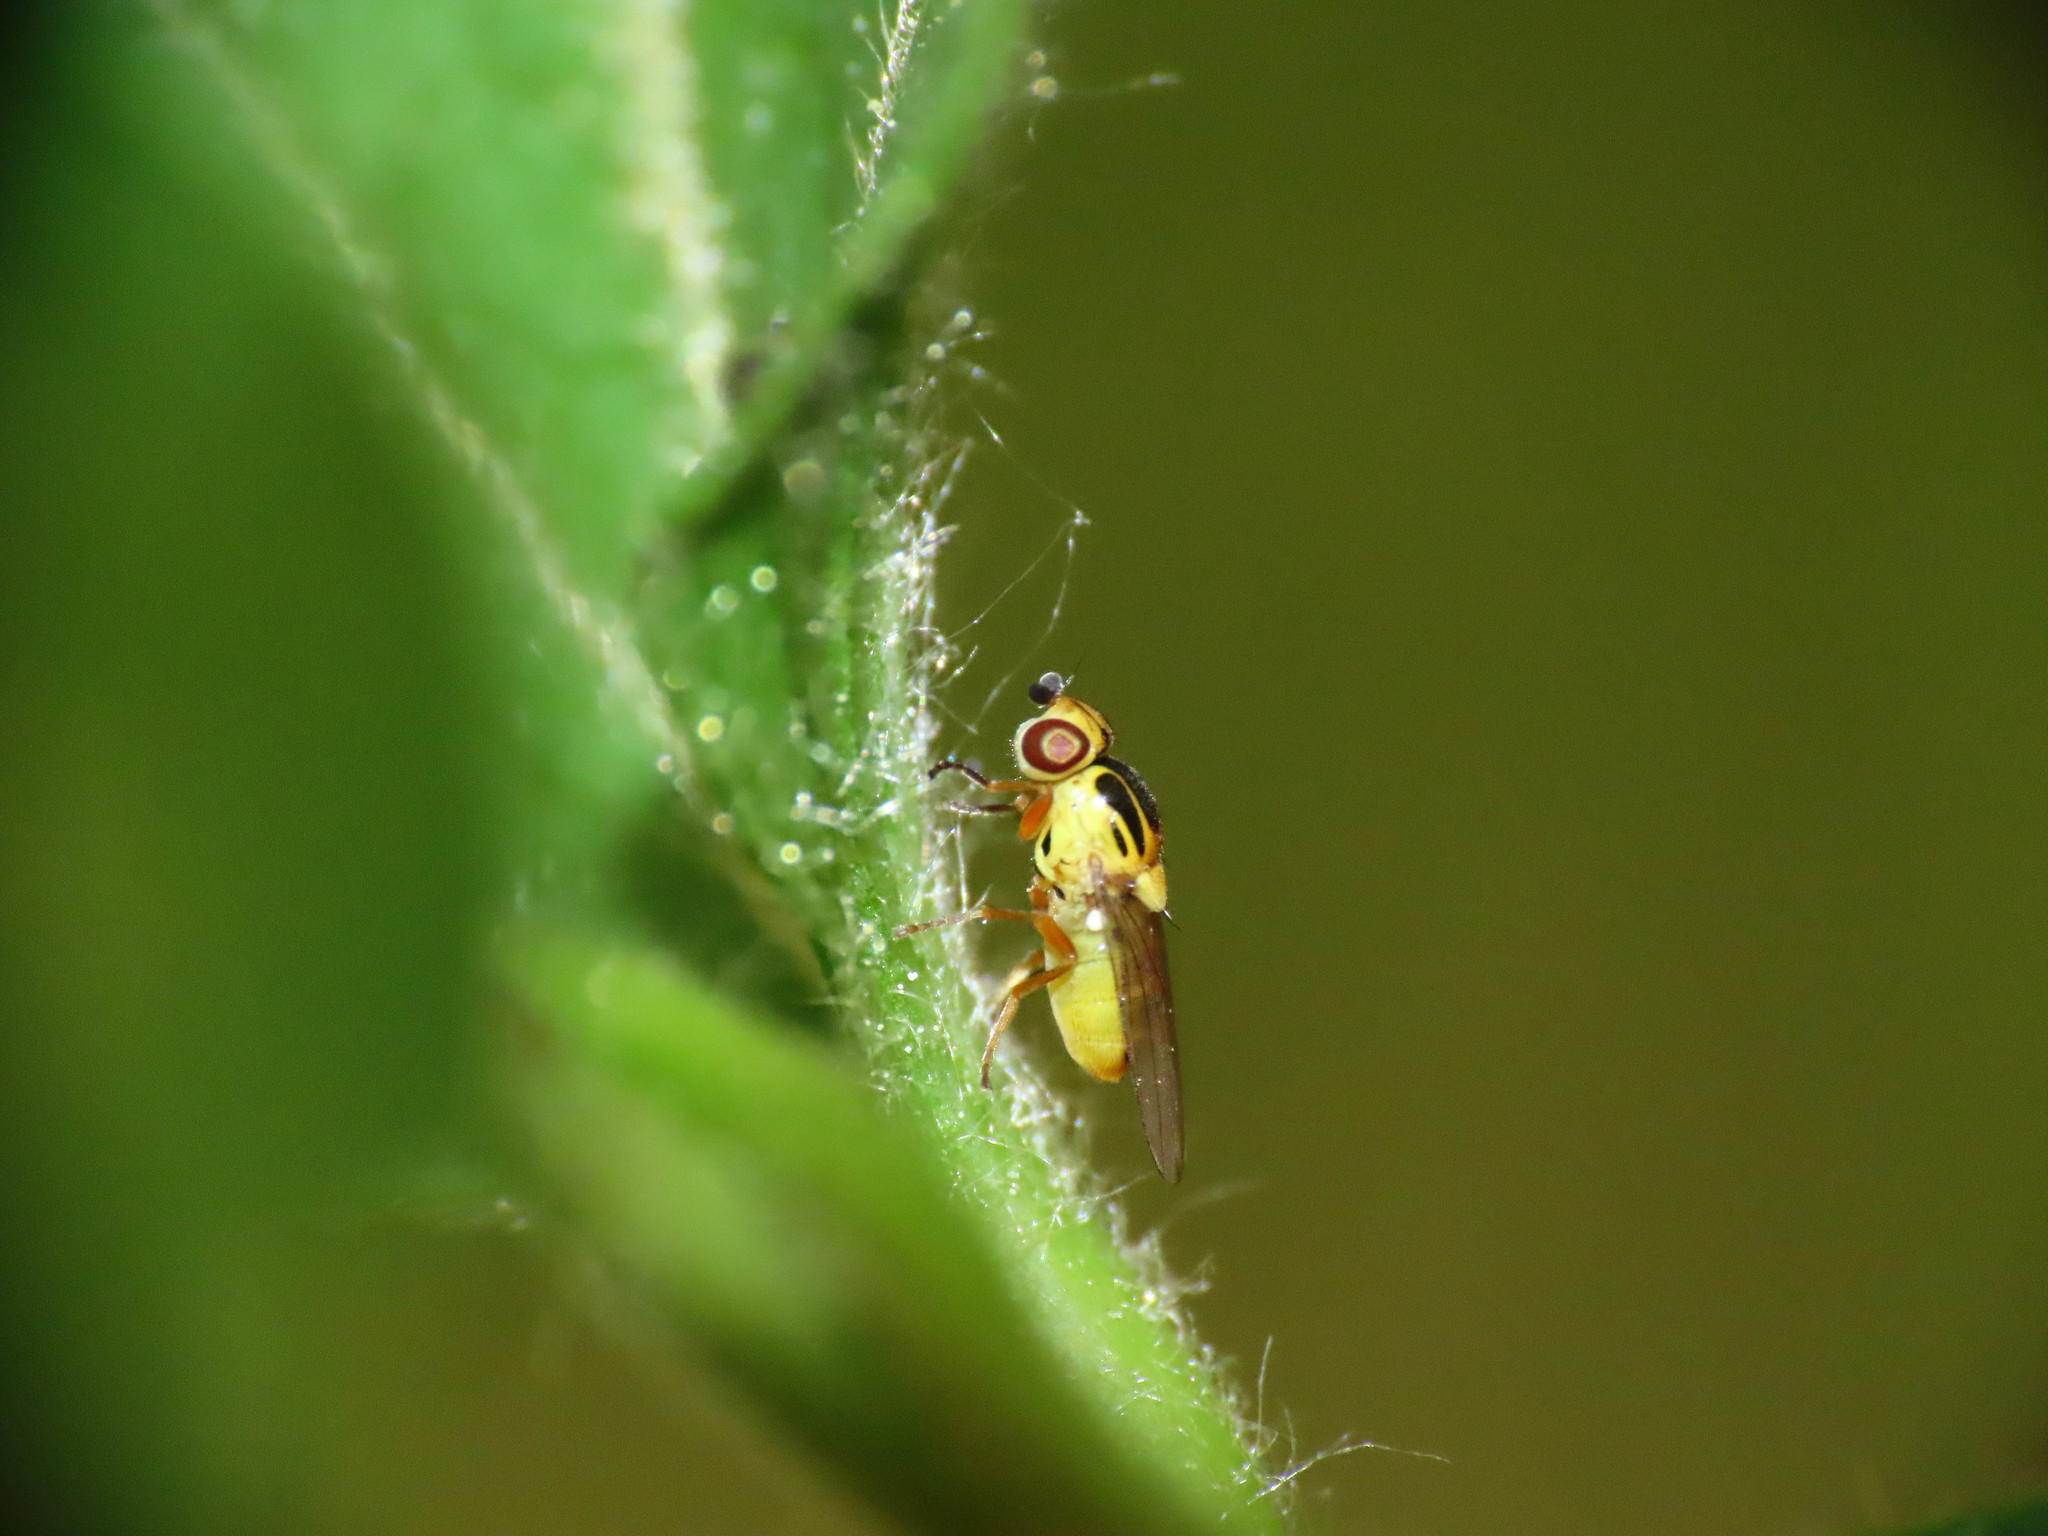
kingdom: Animalia
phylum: Arthropoda
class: Insecta
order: Diptera
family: Chloropidae
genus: Thaumatomyia
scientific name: Thaumatomyia notata
